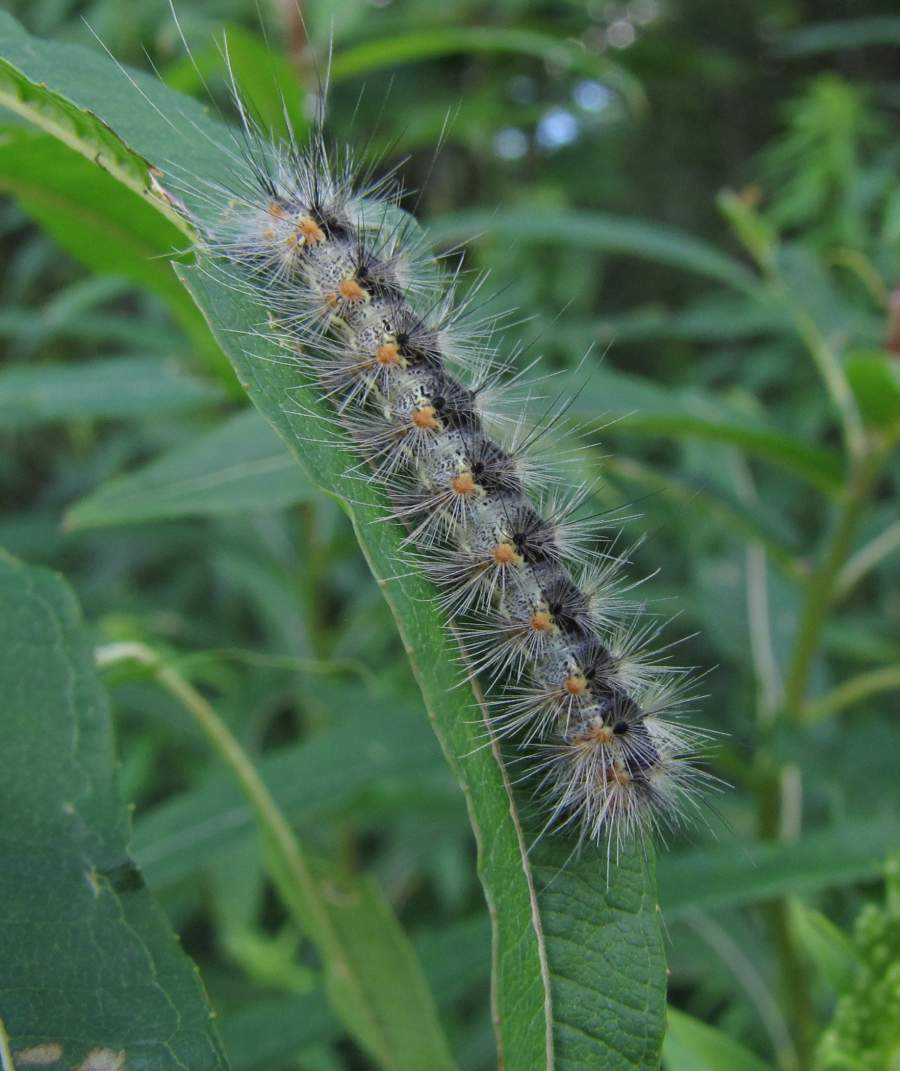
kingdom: Animalia
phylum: Arthropoda
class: Insecta
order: Lepidoptera
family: Erebidae
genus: Hyphantria
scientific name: Hyphantria cunea
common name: American white moth
